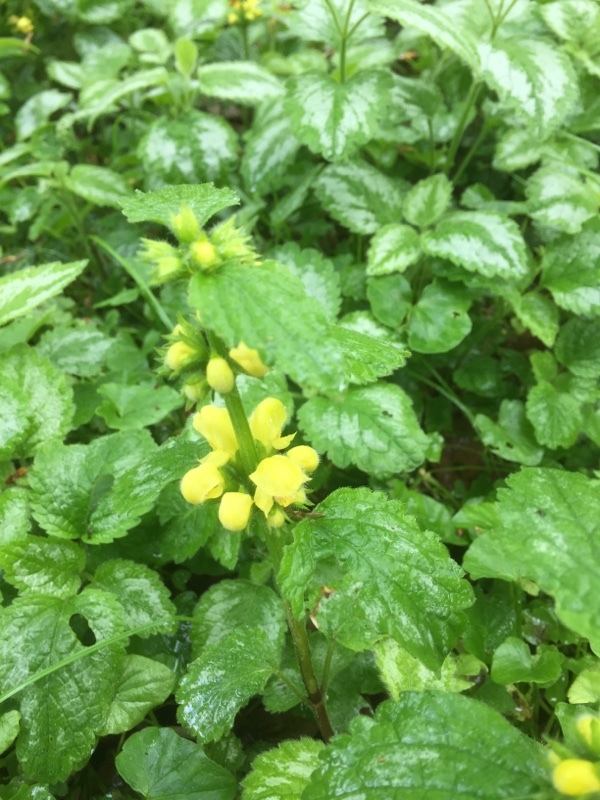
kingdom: Plantae
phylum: Tracheophyta
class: Magnoliopsida
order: Lamiales
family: Lamiaceae
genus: Lamium
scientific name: Lamium galeobdolon
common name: Yellow archangel
